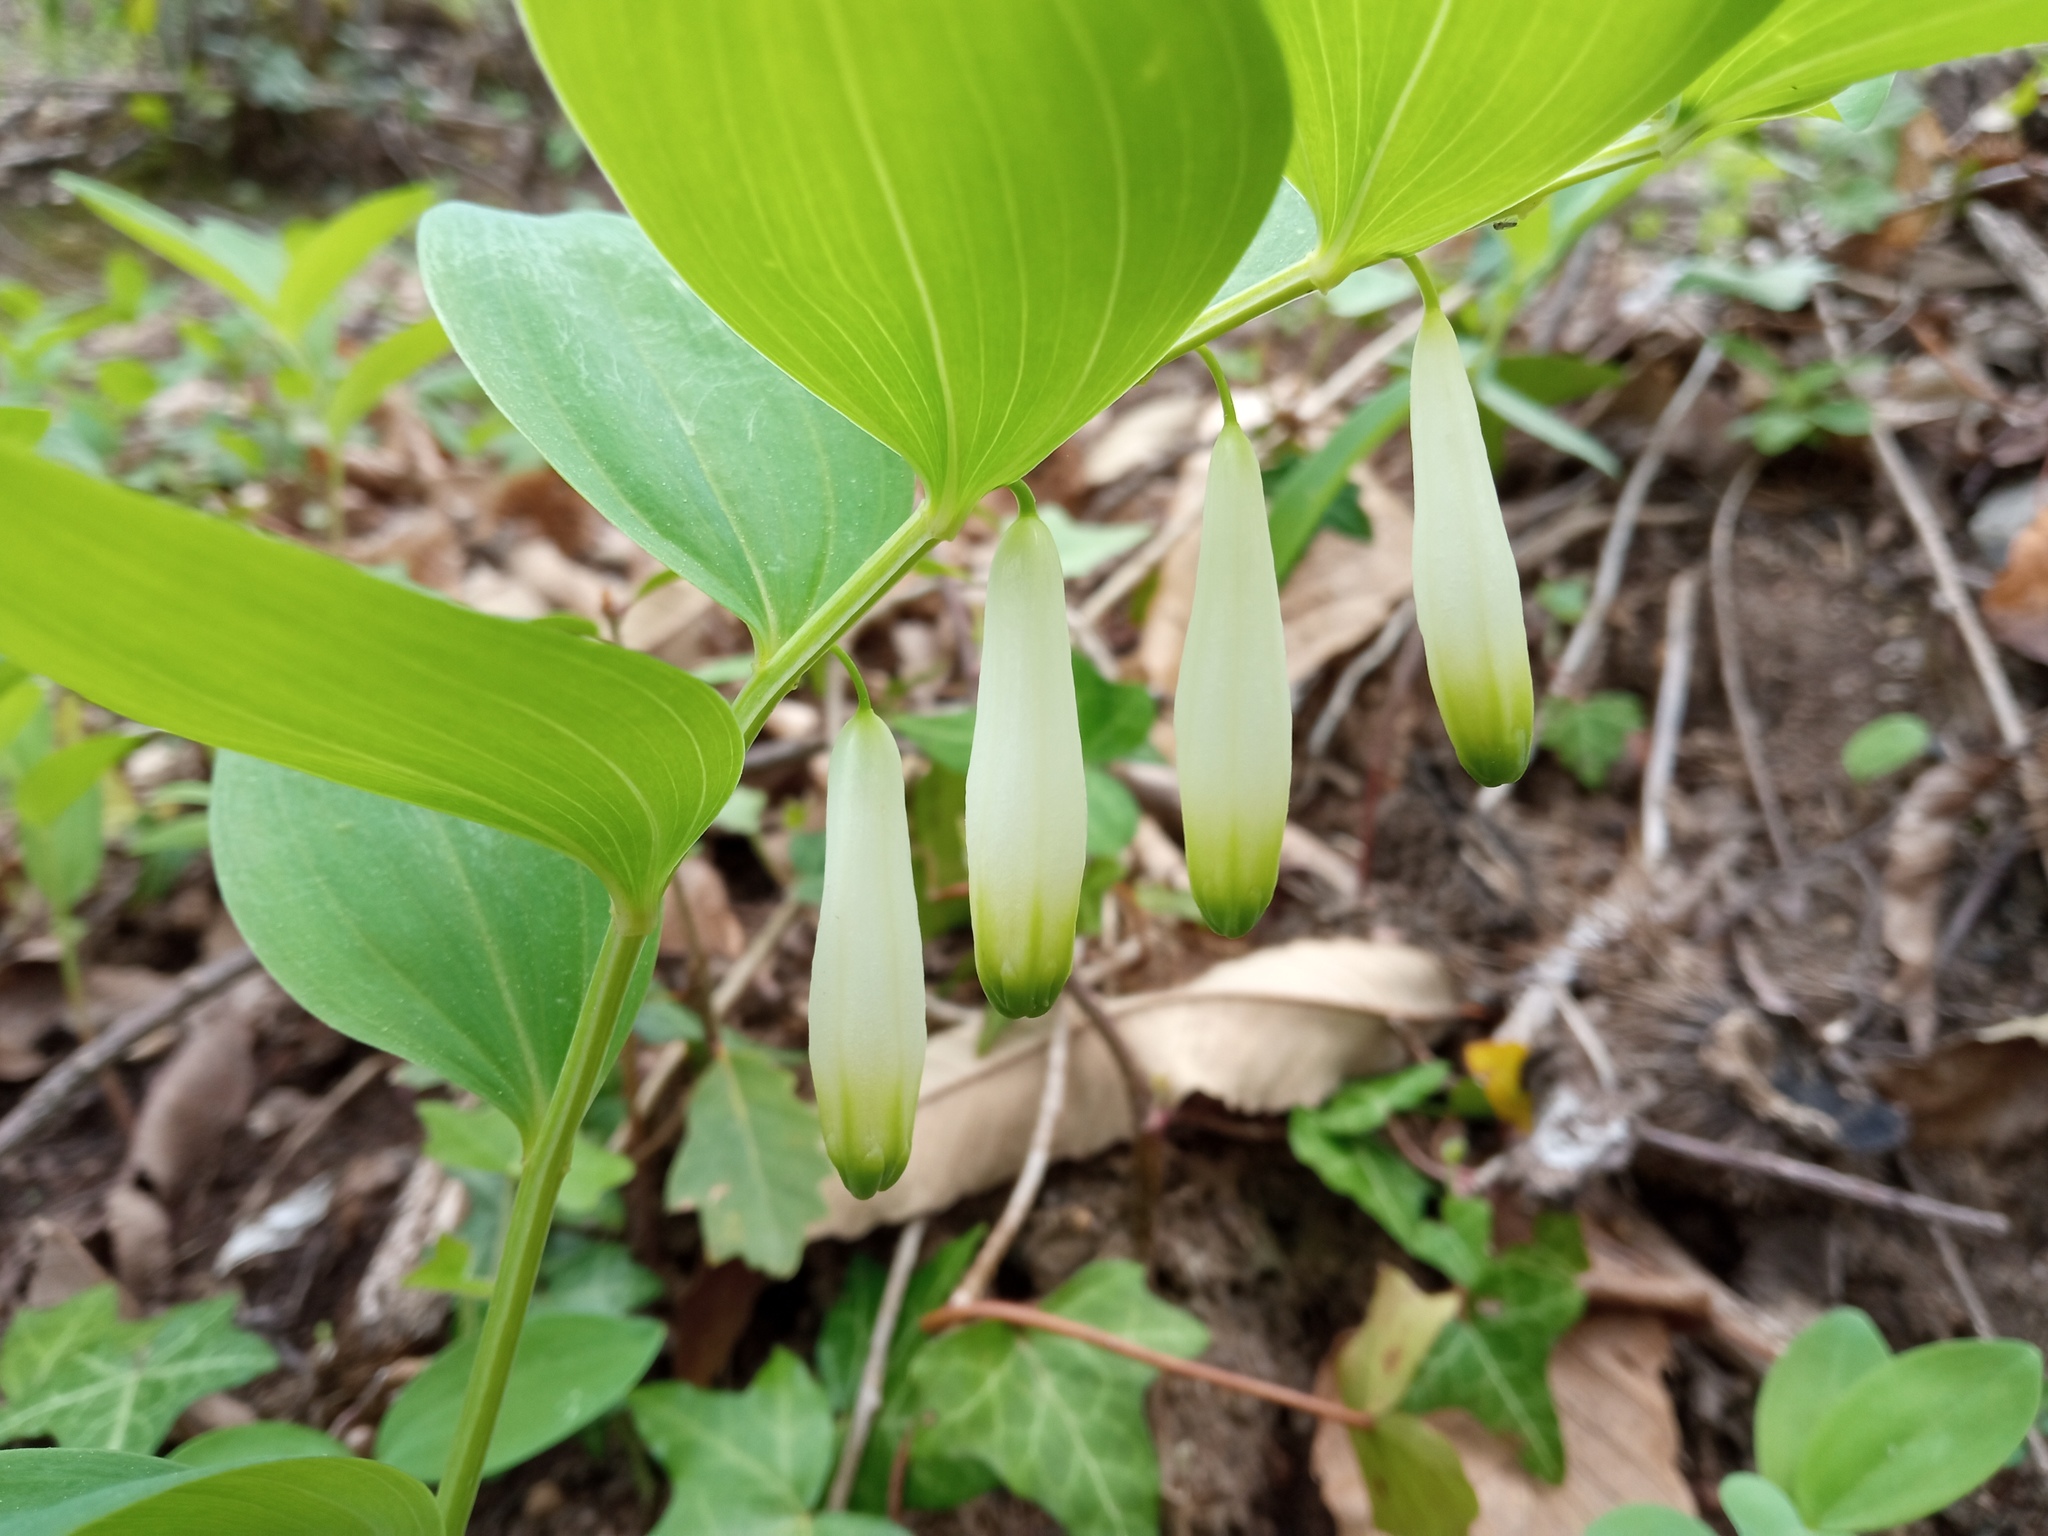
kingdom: Plantae
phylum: Tracheophyta
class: Liliopsida
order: Asparagales
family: Asparagaceae
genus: Polygonatum
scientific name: Polygonatum odoratum
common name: Angular solomon's-seal
